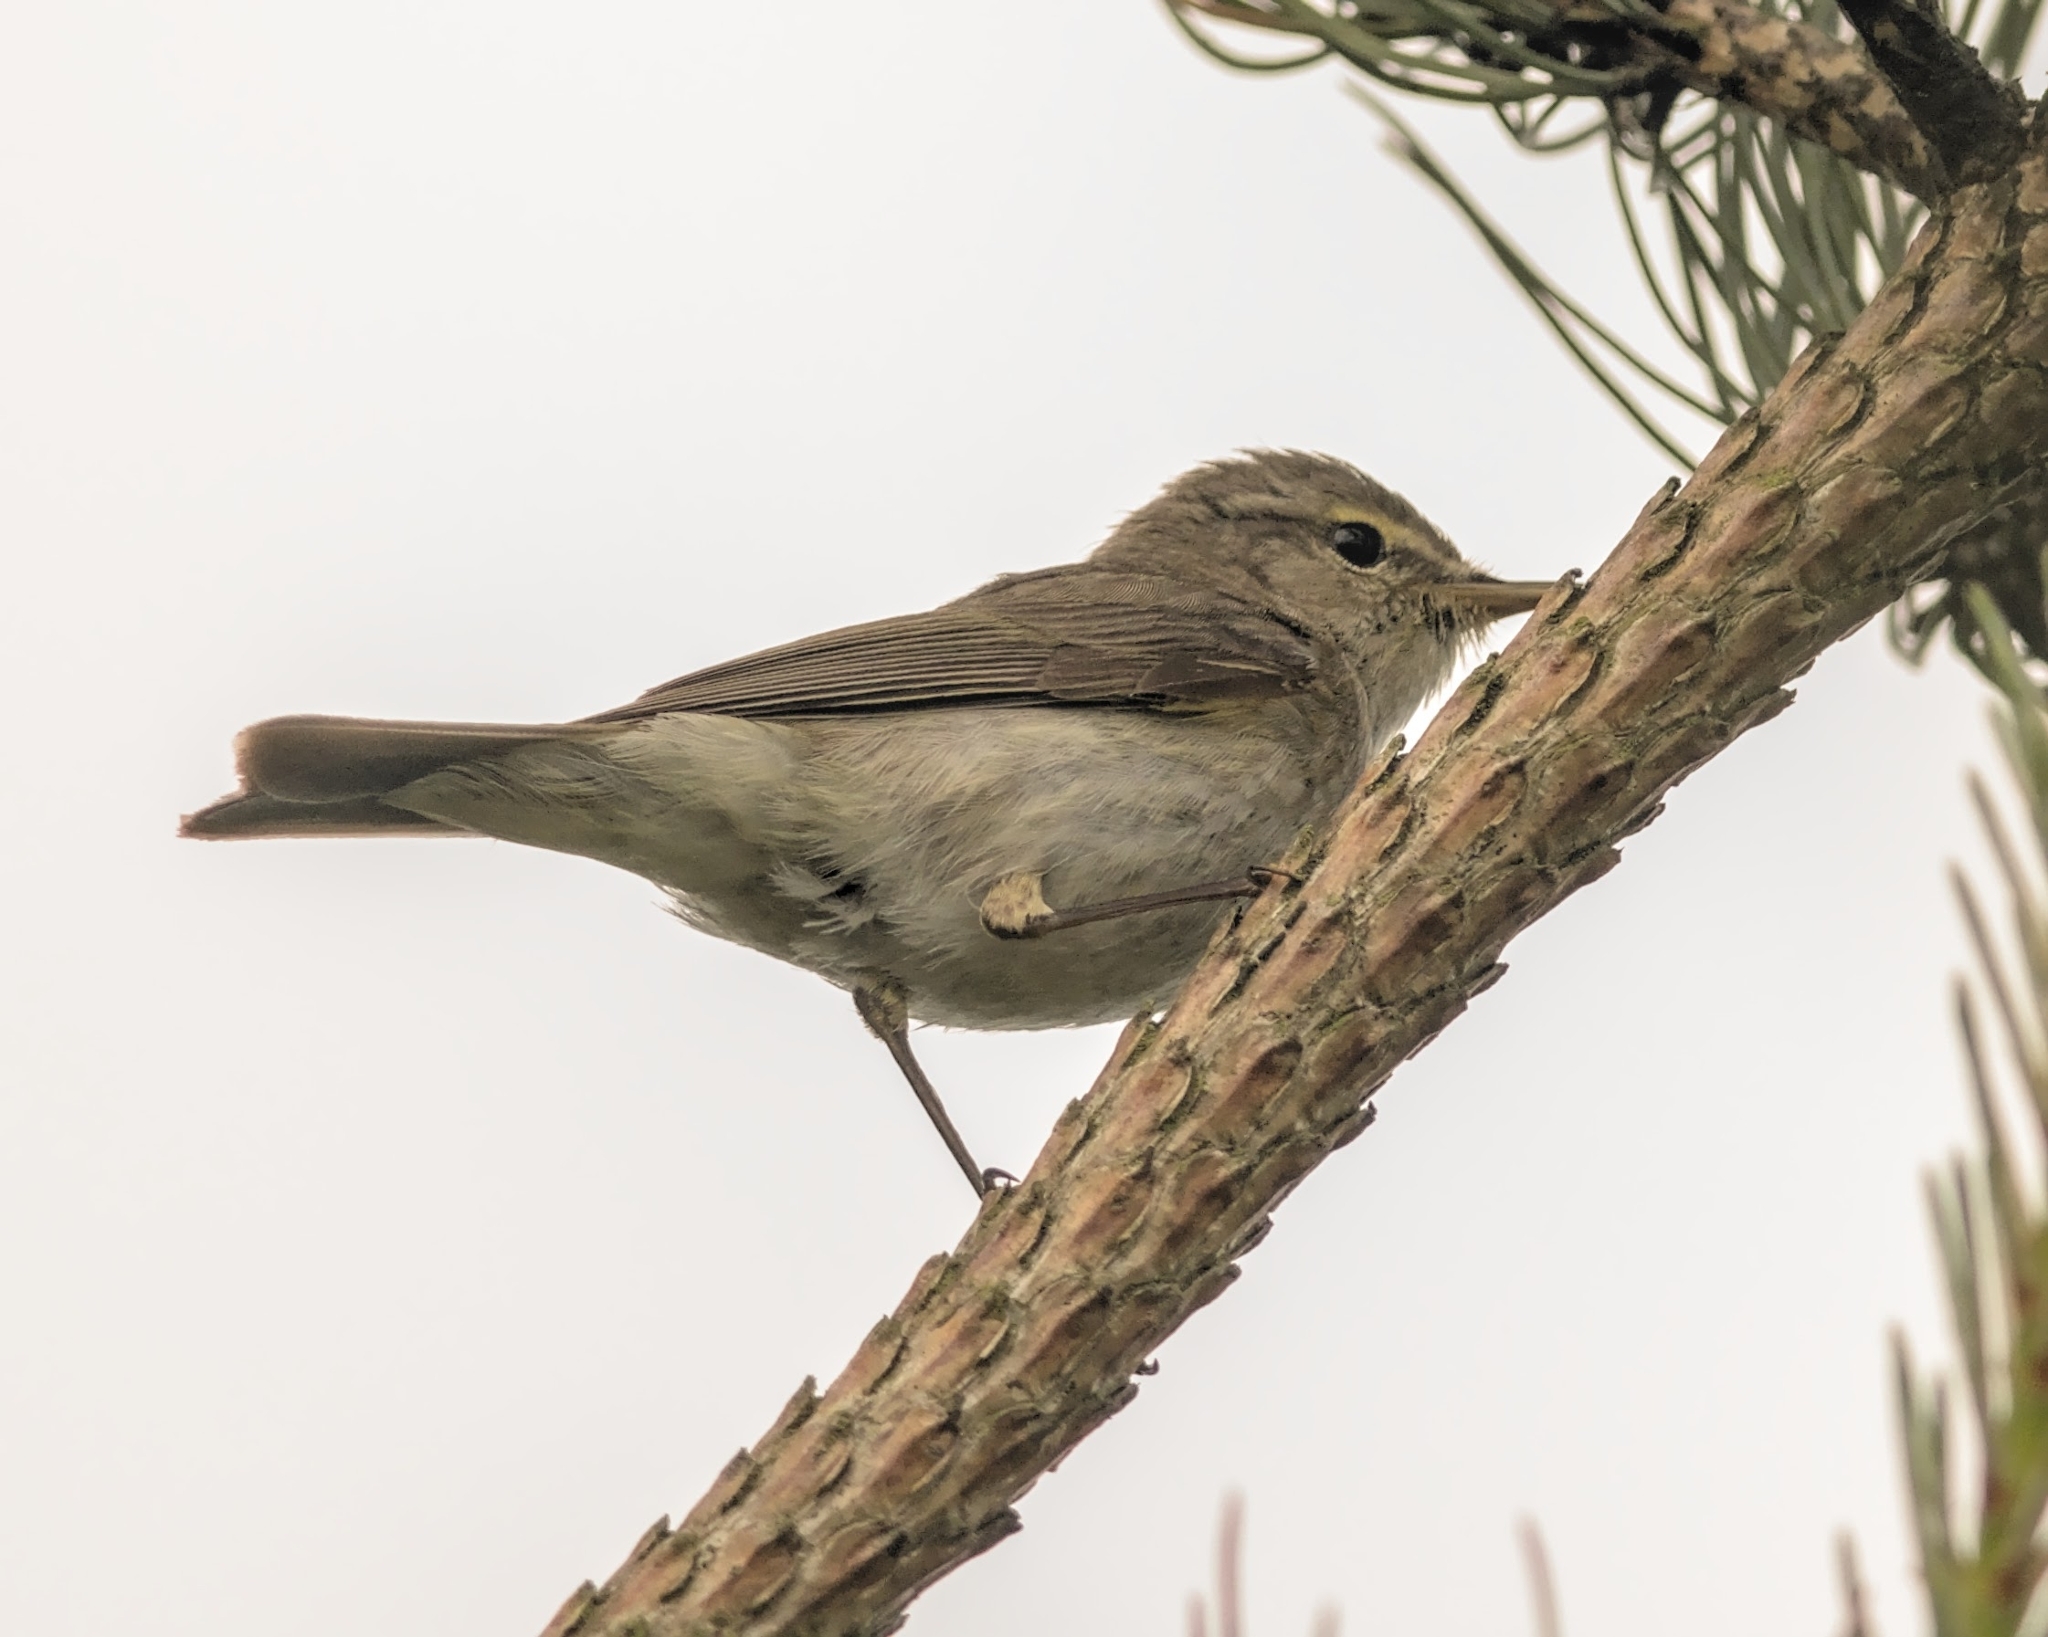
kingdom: Animalia
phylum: Chordata
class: Aves
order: Passeriformes
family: Phylloscopidae
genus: Phylloscopus
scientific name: Phylloscopus collybita
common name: Common chiffchaff
